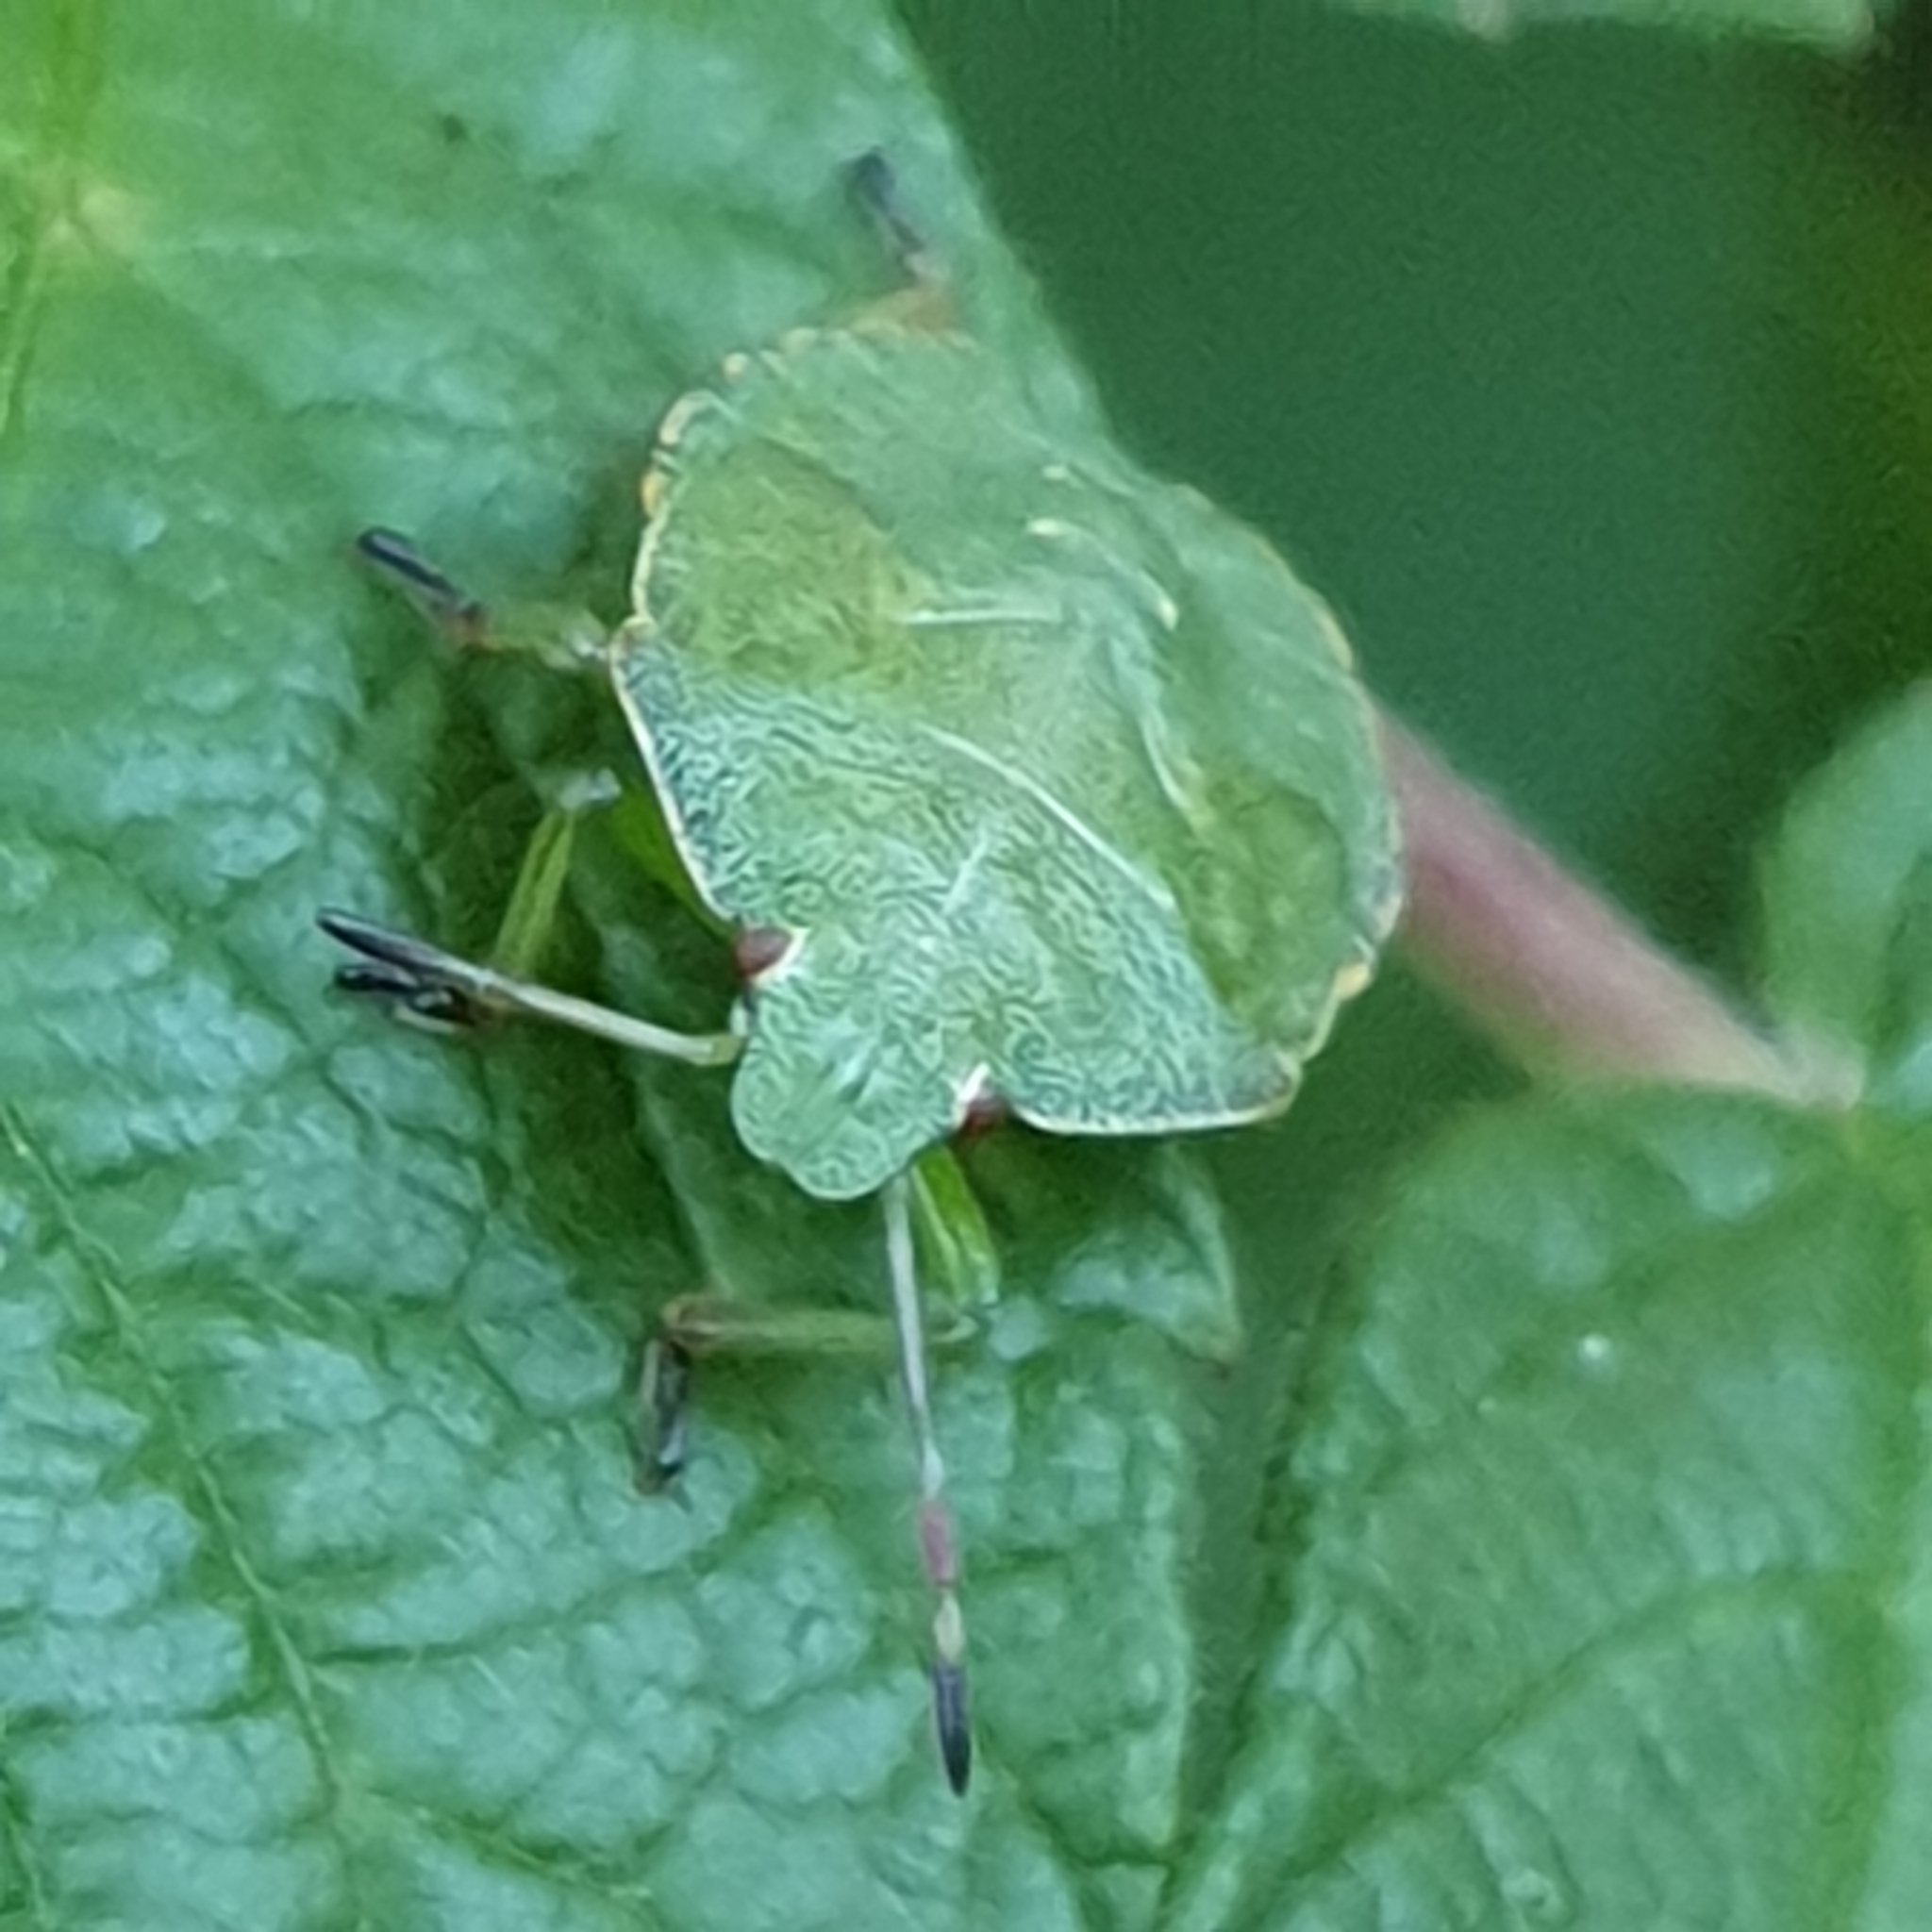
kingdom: Animalia
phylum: Arthropoda
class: Insecta
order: Hemiptera
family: Pentatomidae
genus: Palomena
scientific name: Palomena prasina
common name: Green shieldbug
